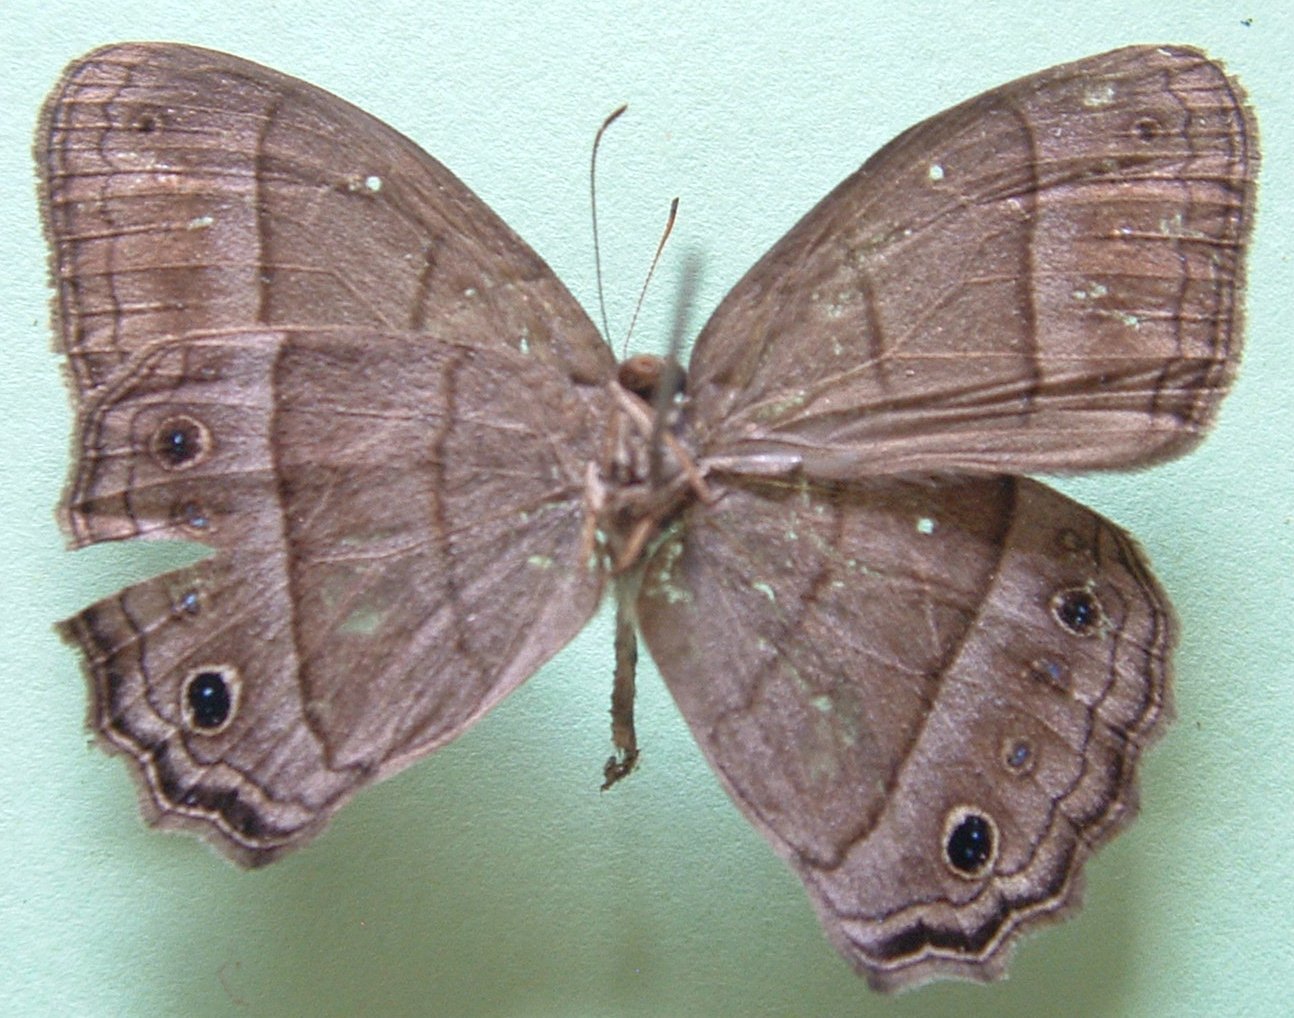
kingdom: Animalia
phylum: Arthropoda
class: Insecta
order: Lepidoptera
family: Nymphalidae
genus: Vareuptychia
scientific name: Vareuptychia similis
